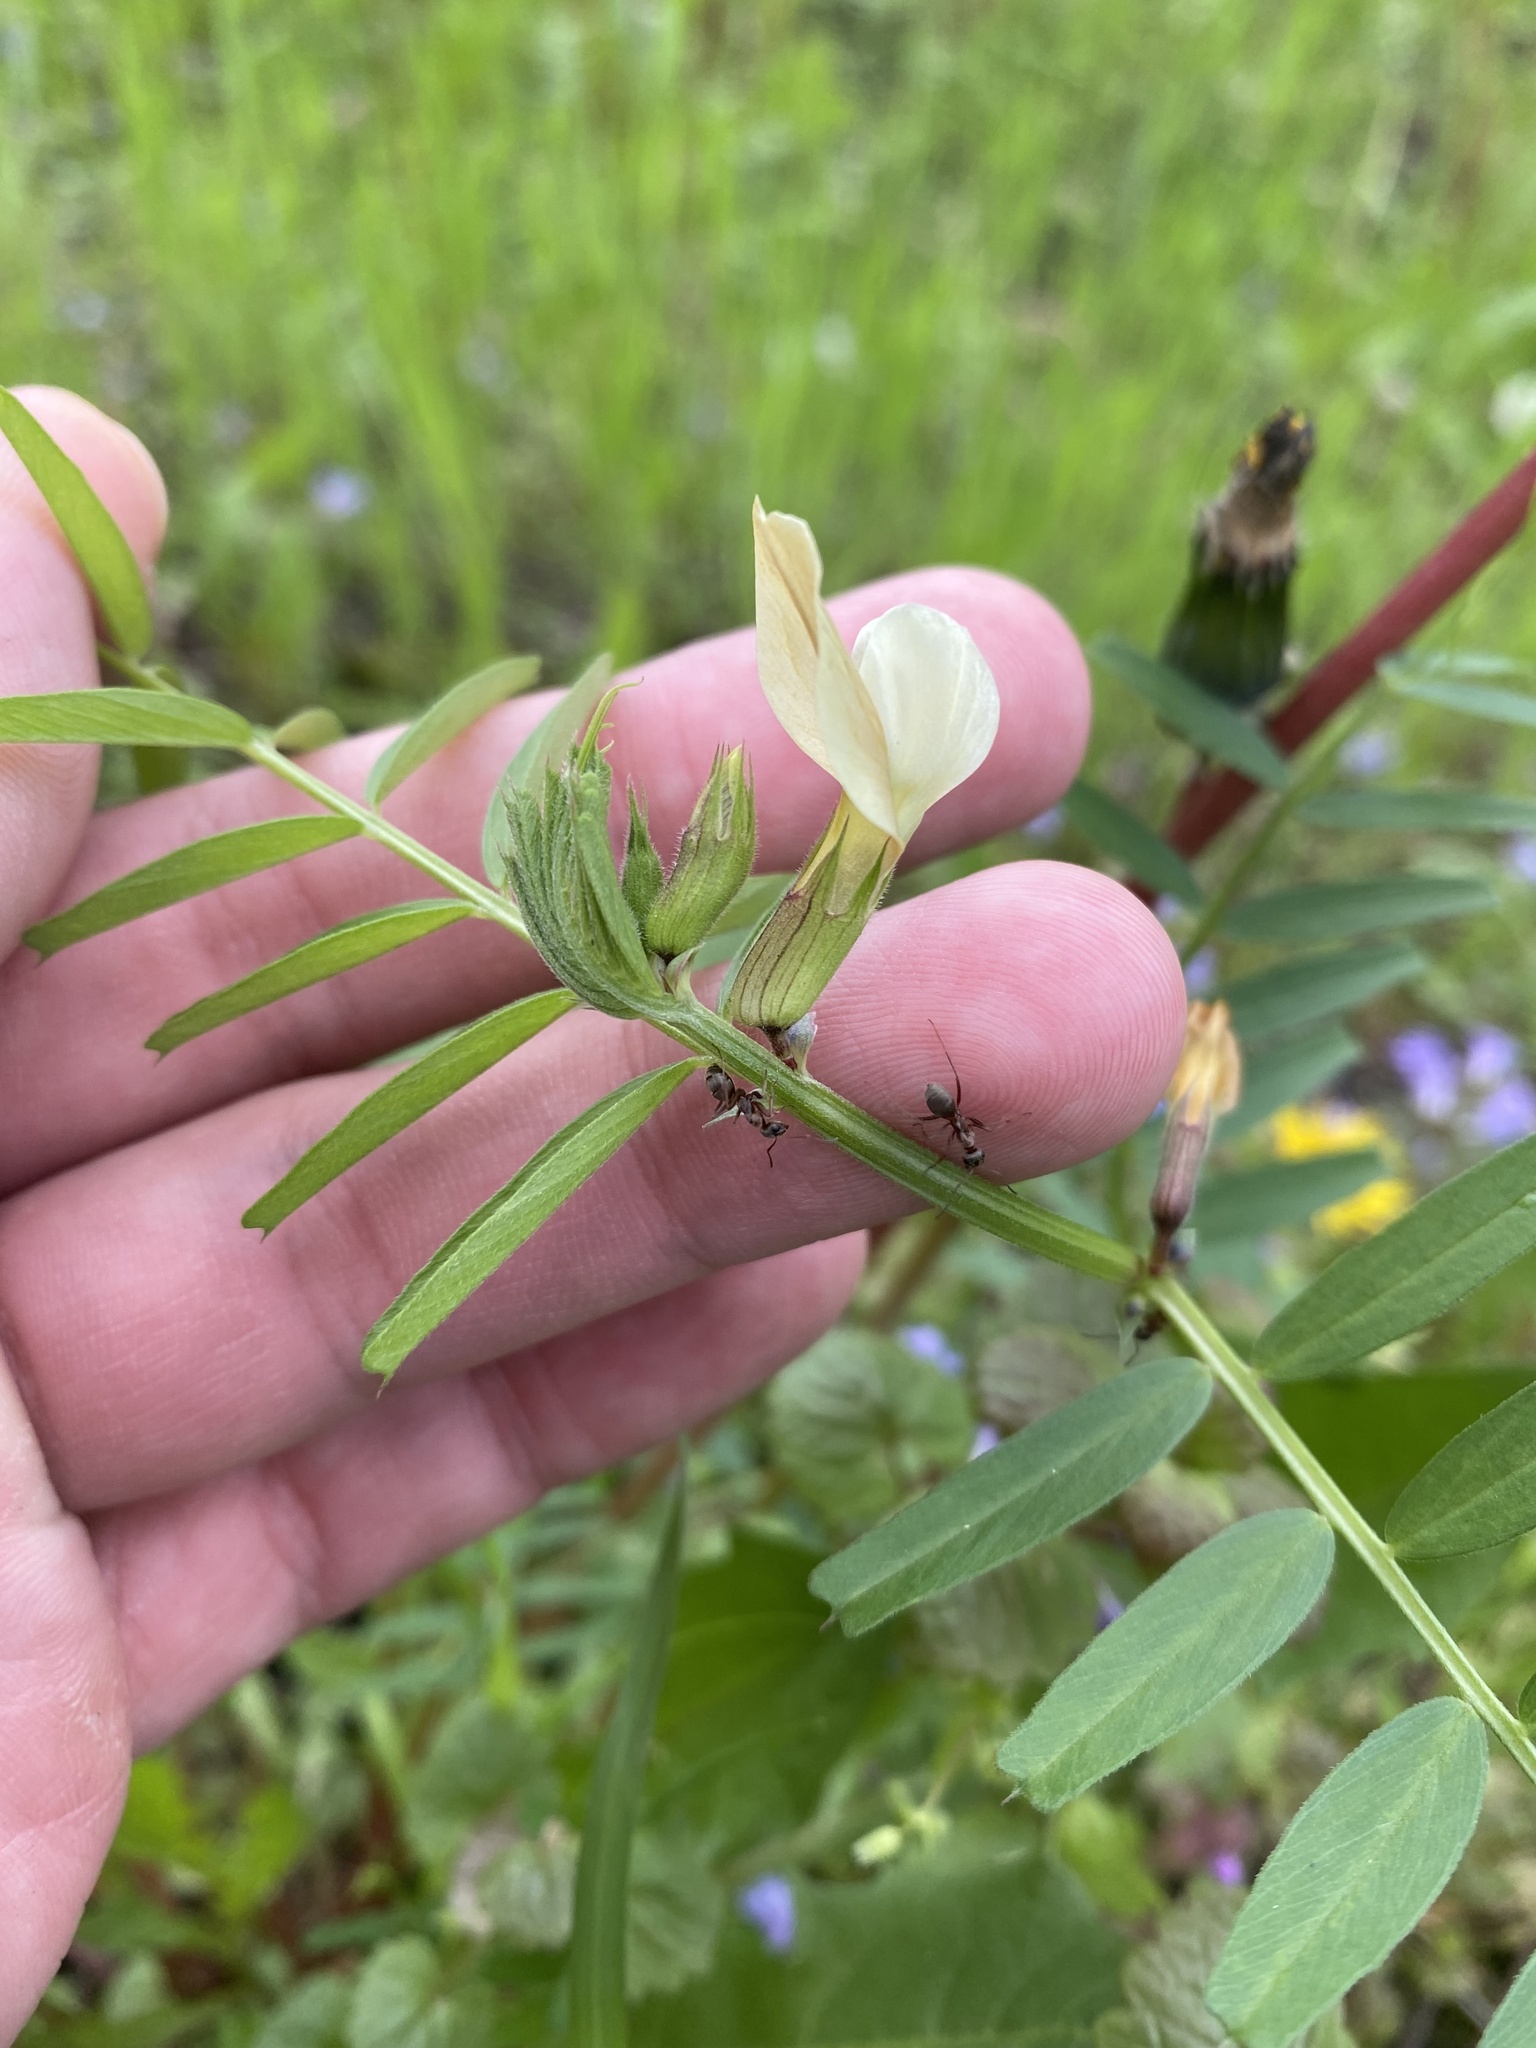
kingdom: Plantae
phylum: Tracheophyta
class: Magnoliopsida
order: Fabales
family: Fabaceae
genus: Vicia
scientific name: Vicia grandiflora
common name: Large yellow vetch
